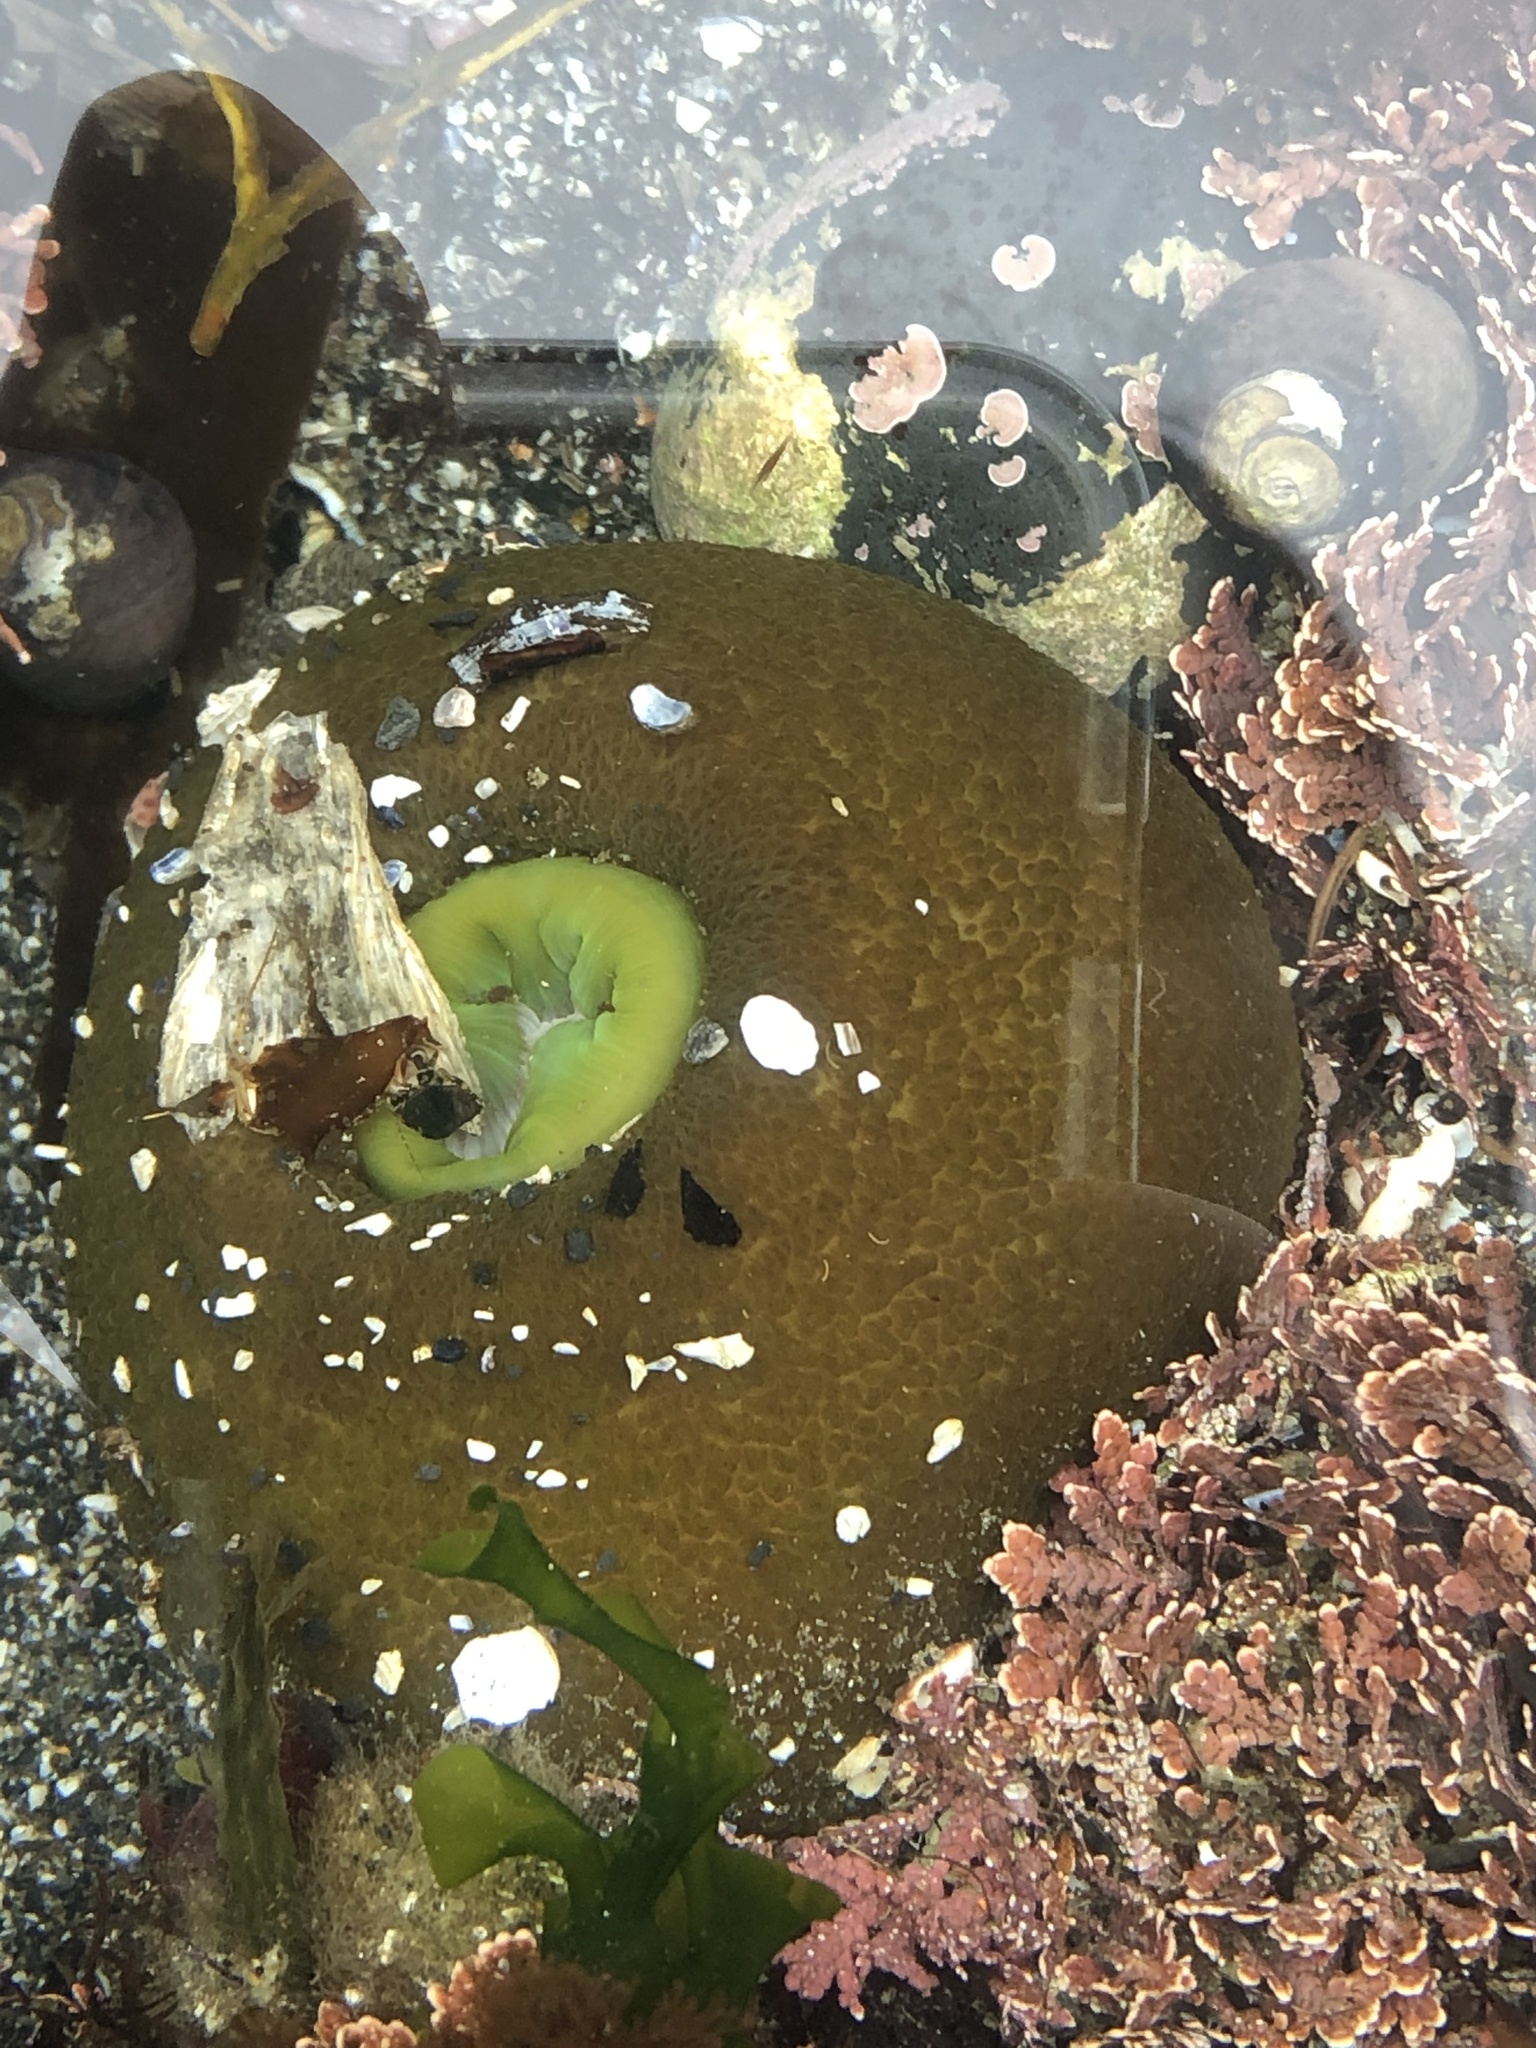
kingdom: Animalia
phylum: Cnidaria
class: Anthozoa
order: Actiniaria
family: Actiniidae
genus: Anthopleura
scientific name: Anthopleura xanthogrammica
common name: Giant green anemone
